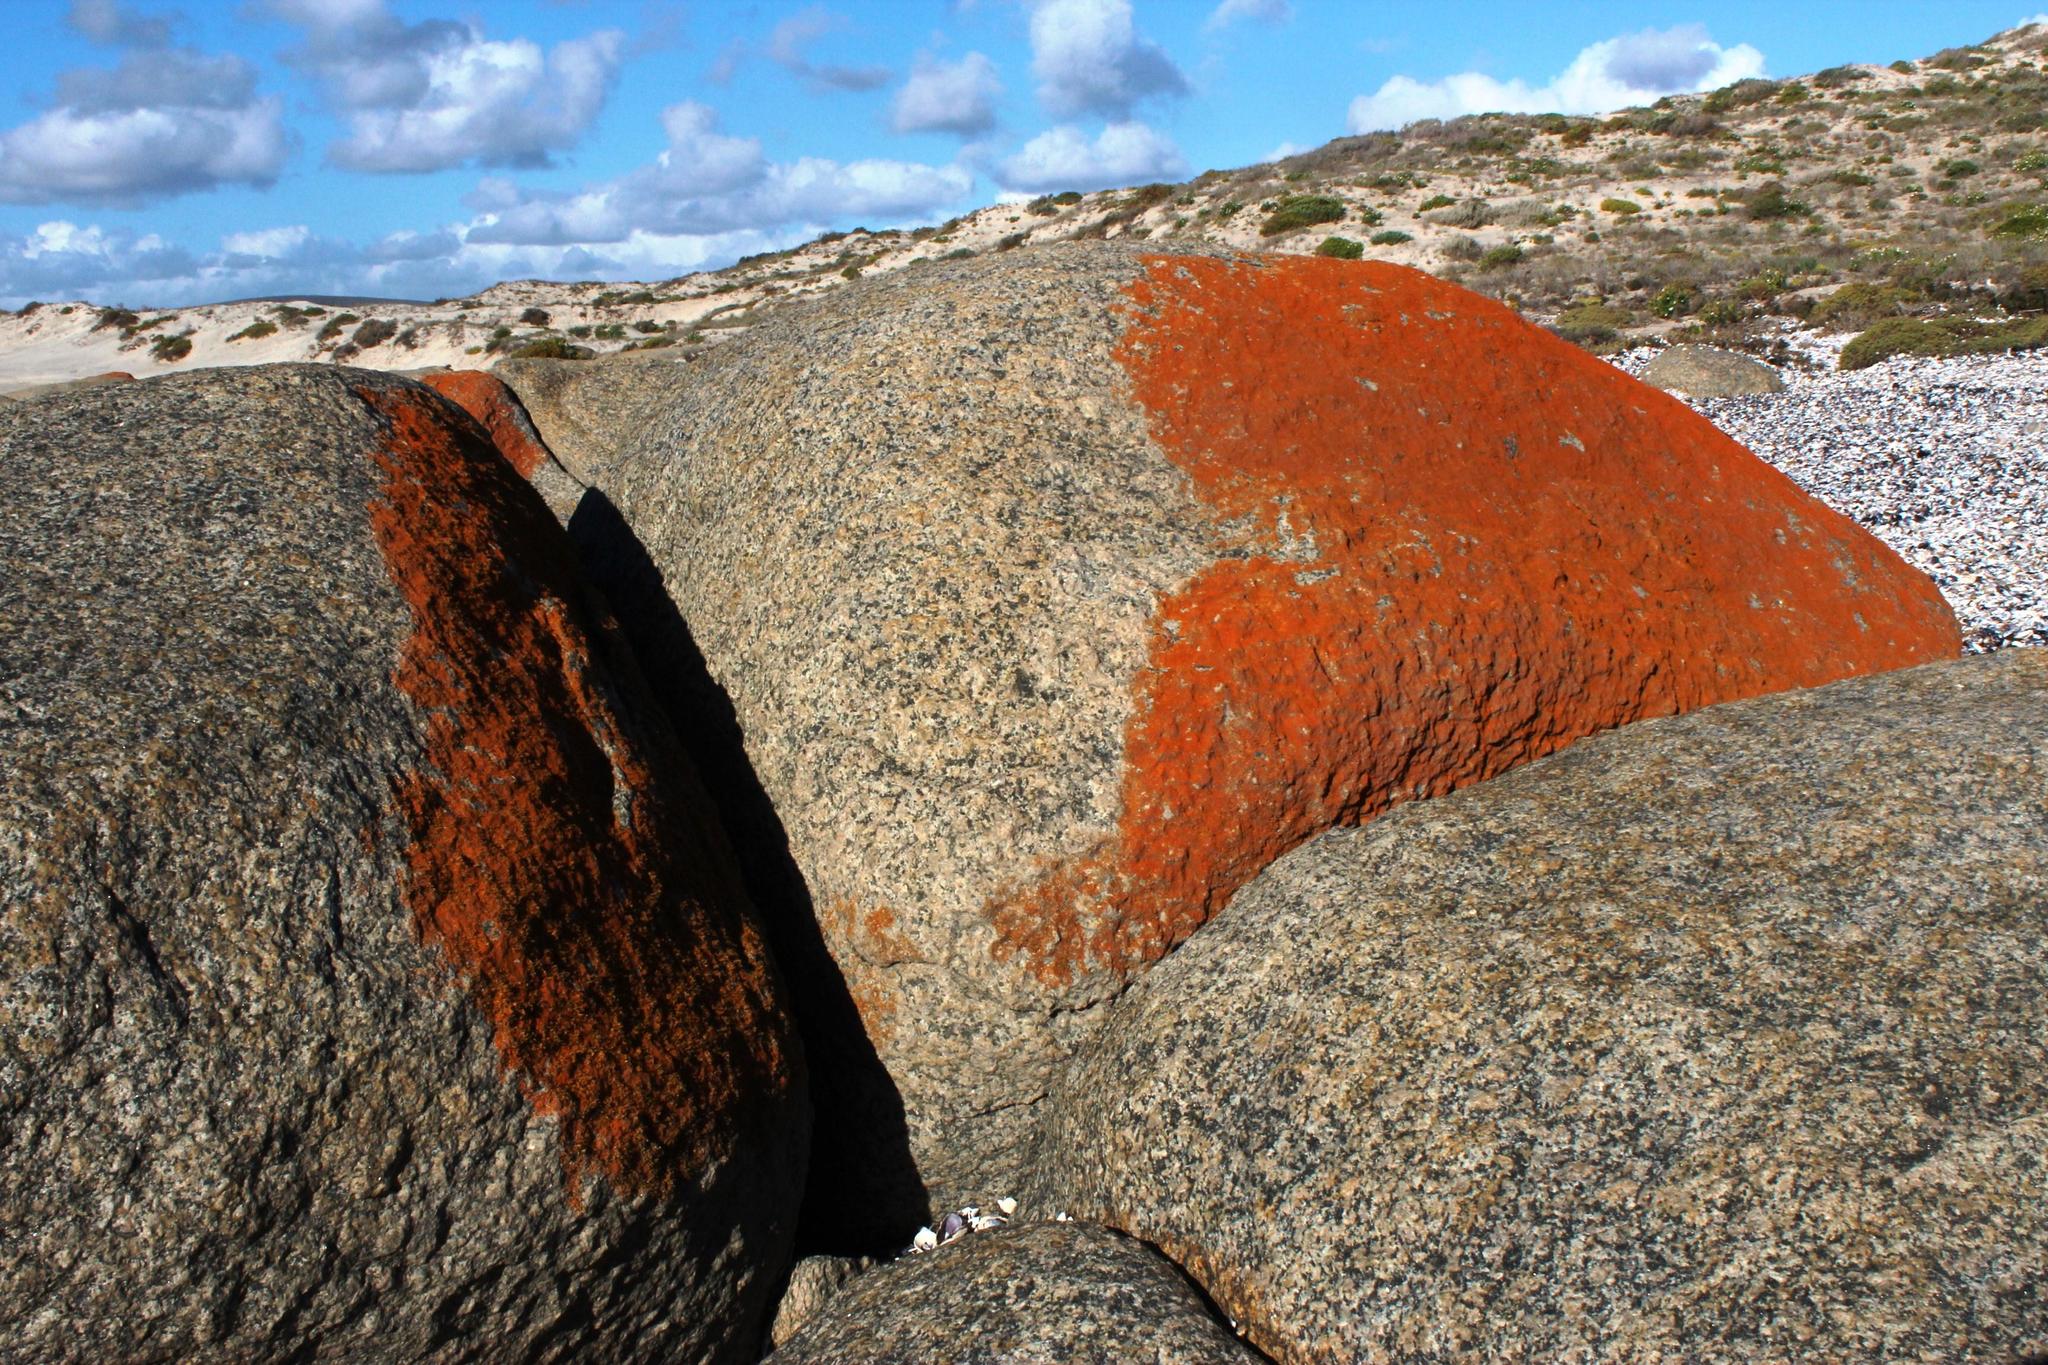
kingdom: Fungi
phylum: Ascomycota
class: Lecanoromycetes
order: Teloschistales
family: Teloschistaceae
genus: Teloschistopsis
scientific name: Teloschistopsis bonae-spei
